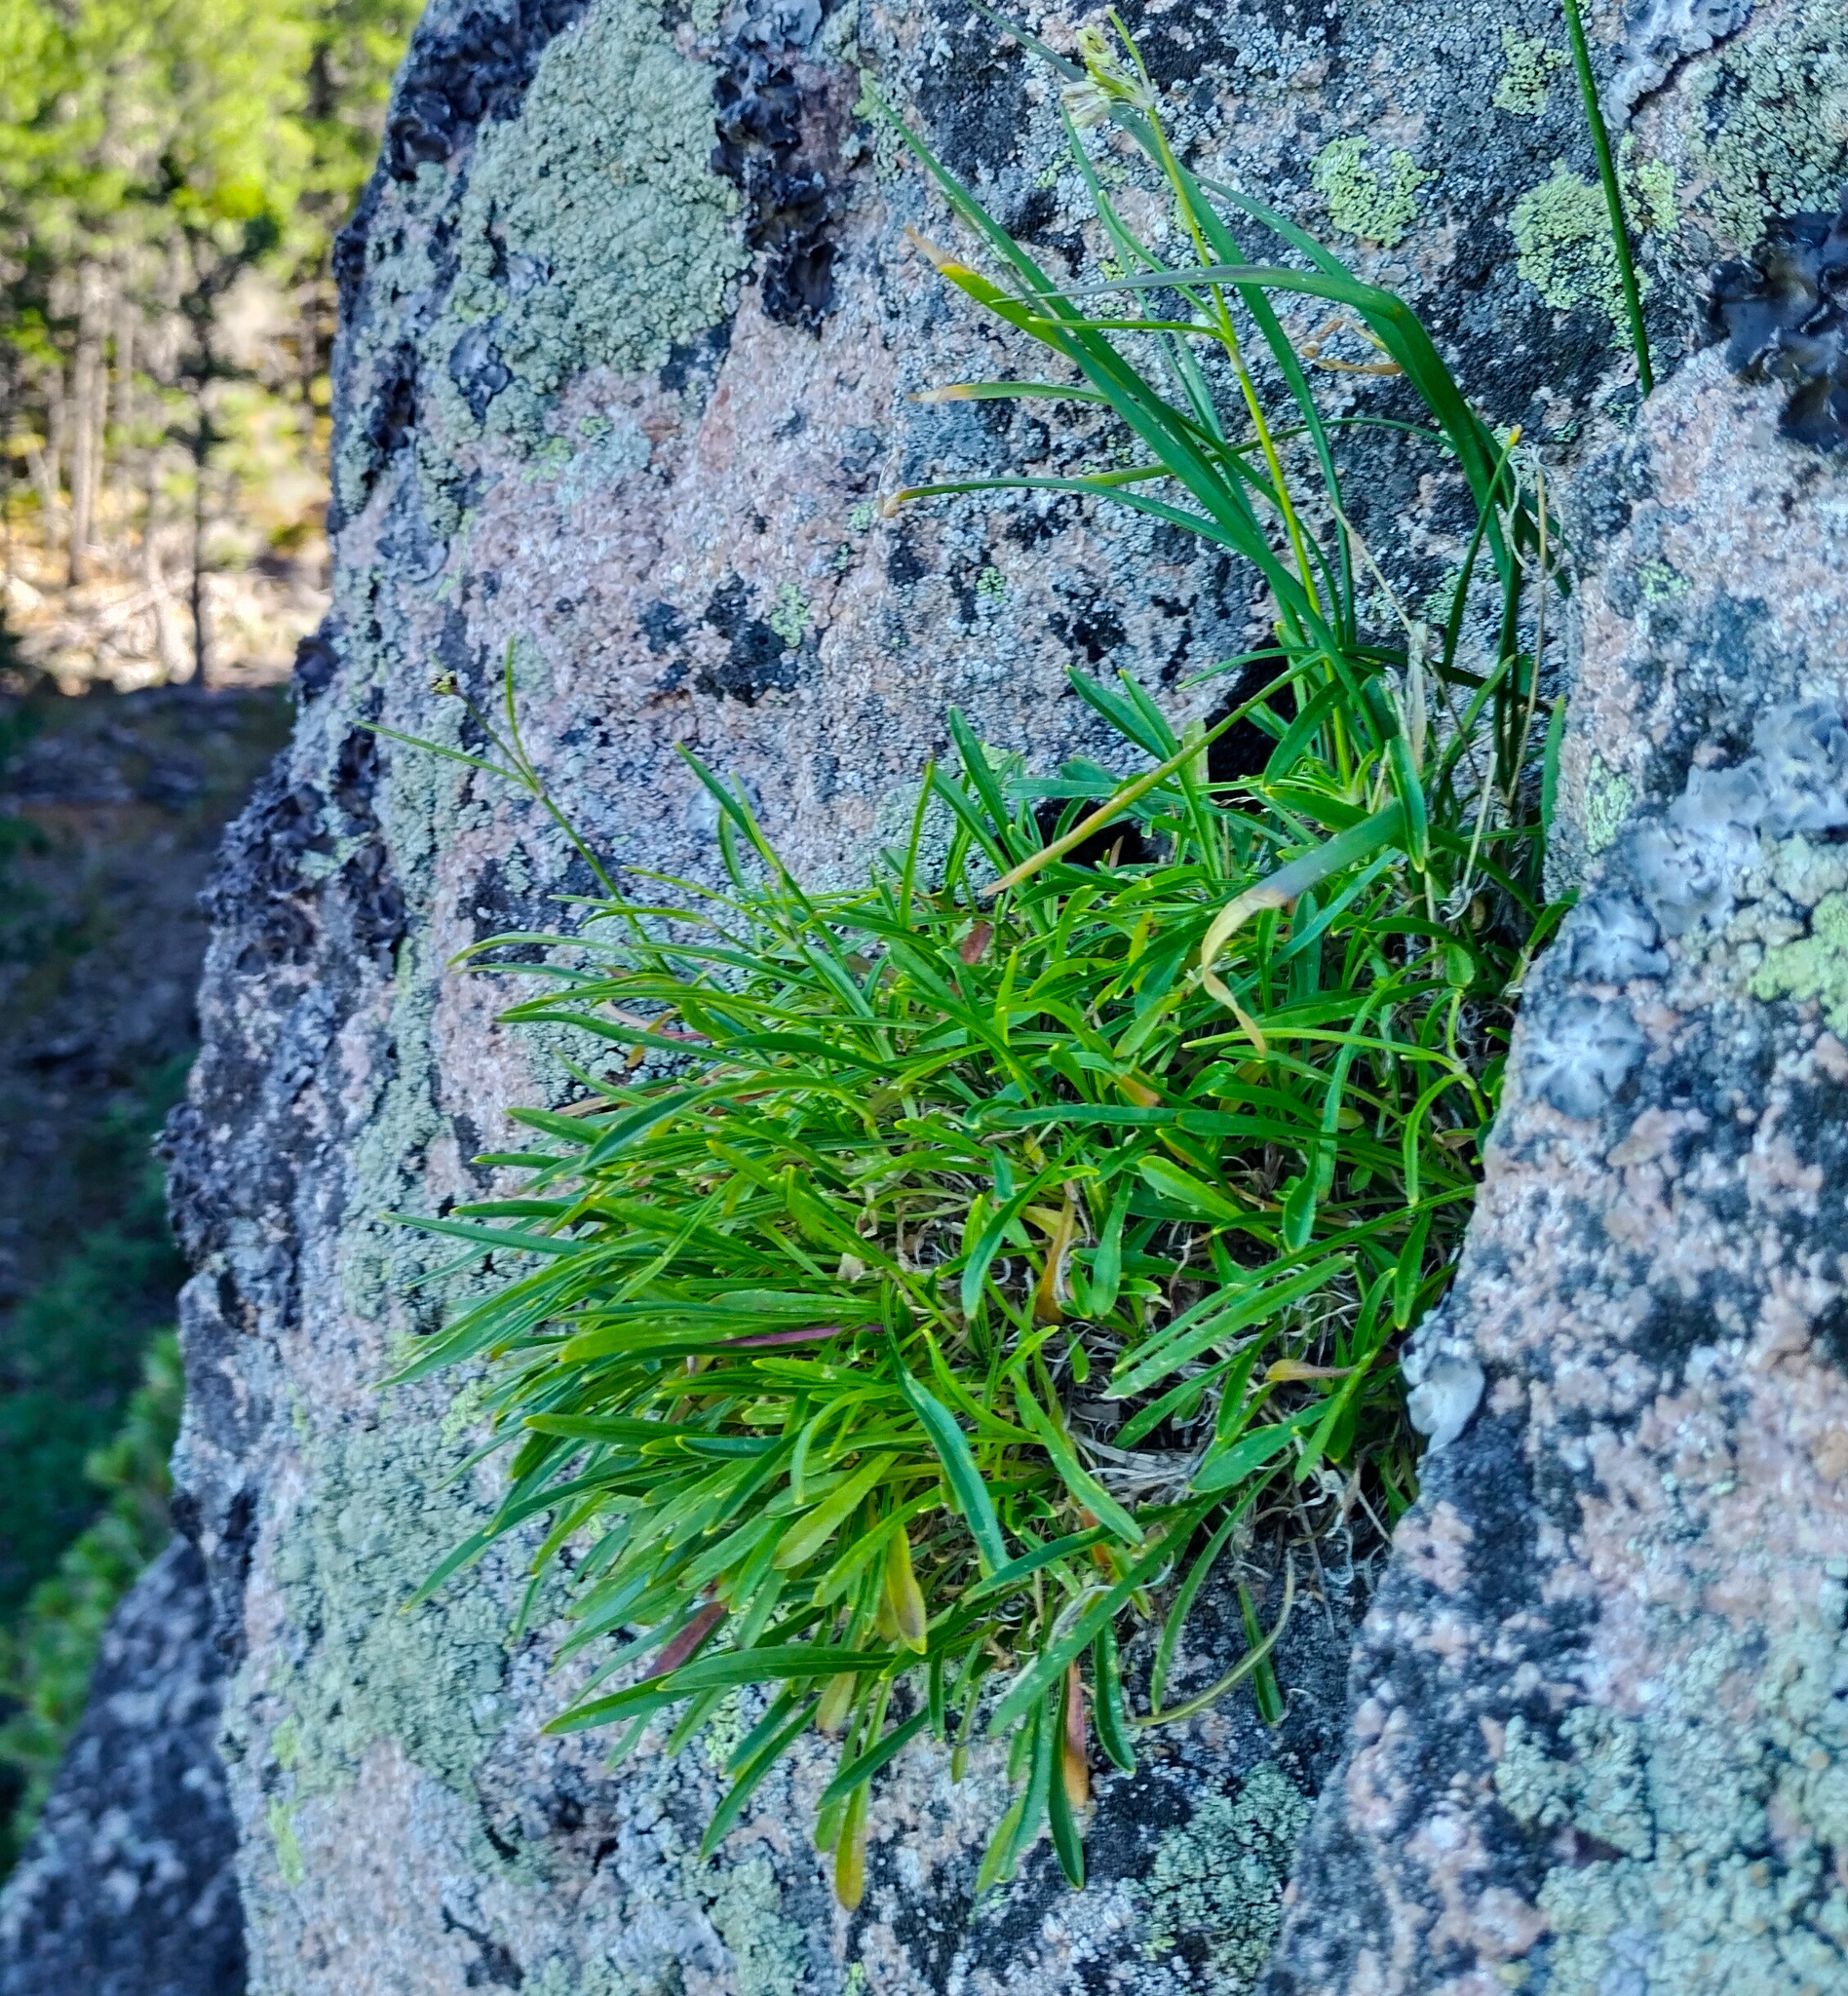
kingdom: Plantae
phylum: Tracheophyta
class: Magnoliopsida
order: Caryophyllales
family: Caryophyllaceae
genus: Silene
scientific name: Silene jeniseensis
